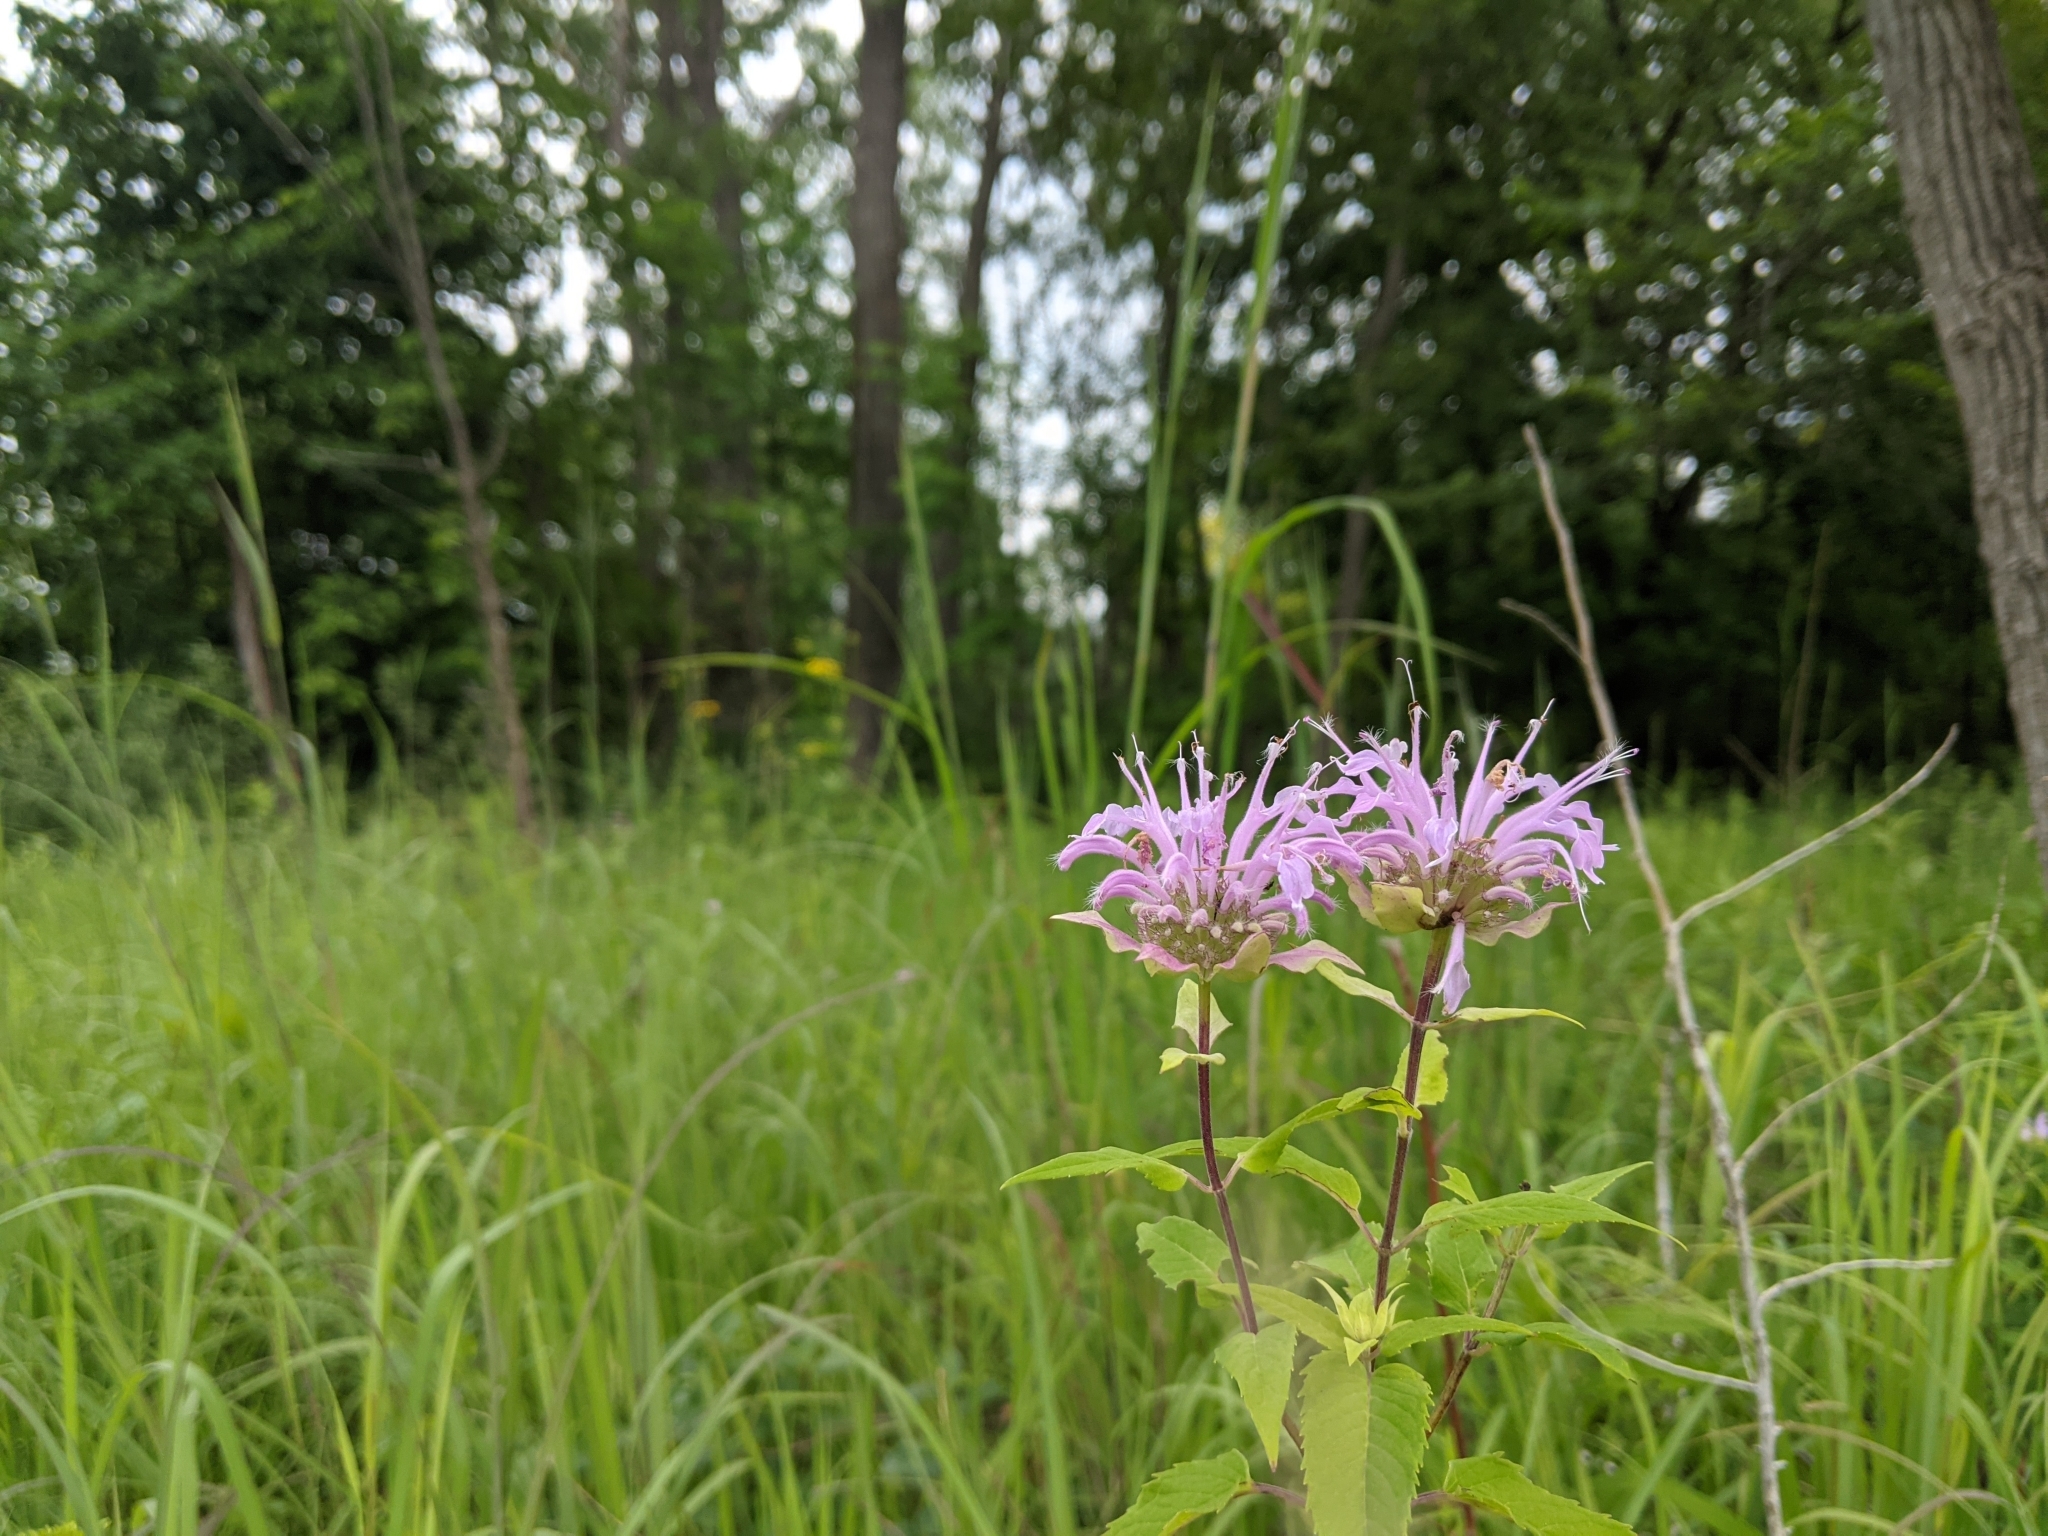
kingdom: Plantae
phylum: Tracheophyta
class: Magnoliopsida
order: Lamiales
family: Lamiaceae
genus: Monarda
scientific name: Monarda fistulosa
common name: Purple beebalm
